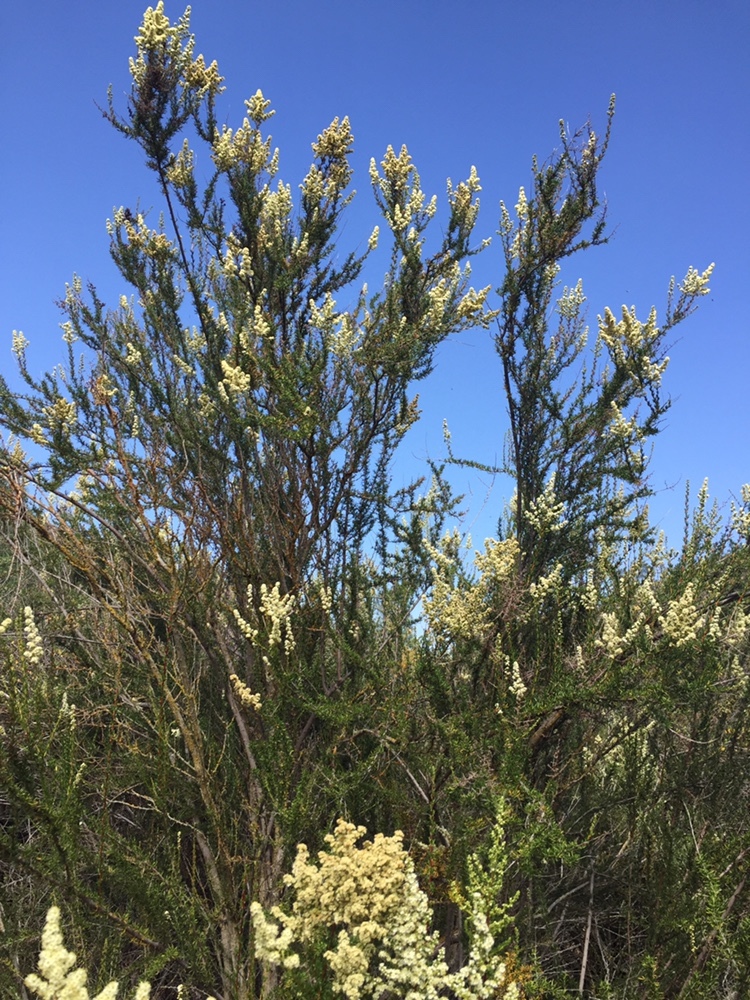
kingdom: Plantae
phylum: Tracheophyta
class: Magnoliopsida
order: Rosales
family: Rosaceae
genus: Adenostoma
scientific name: Adenostoma fasciculatum
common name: Chamise
